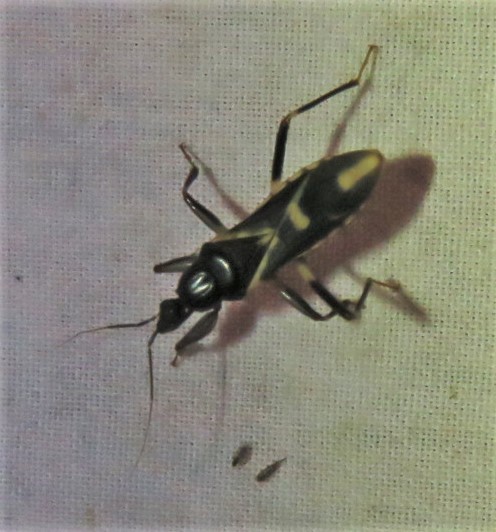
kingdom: Animalia
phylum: Arthropoda
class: Insecta
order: Hemiptera
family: Reduviidae
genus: Rasahus
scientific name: Rasahus sulcicollis
